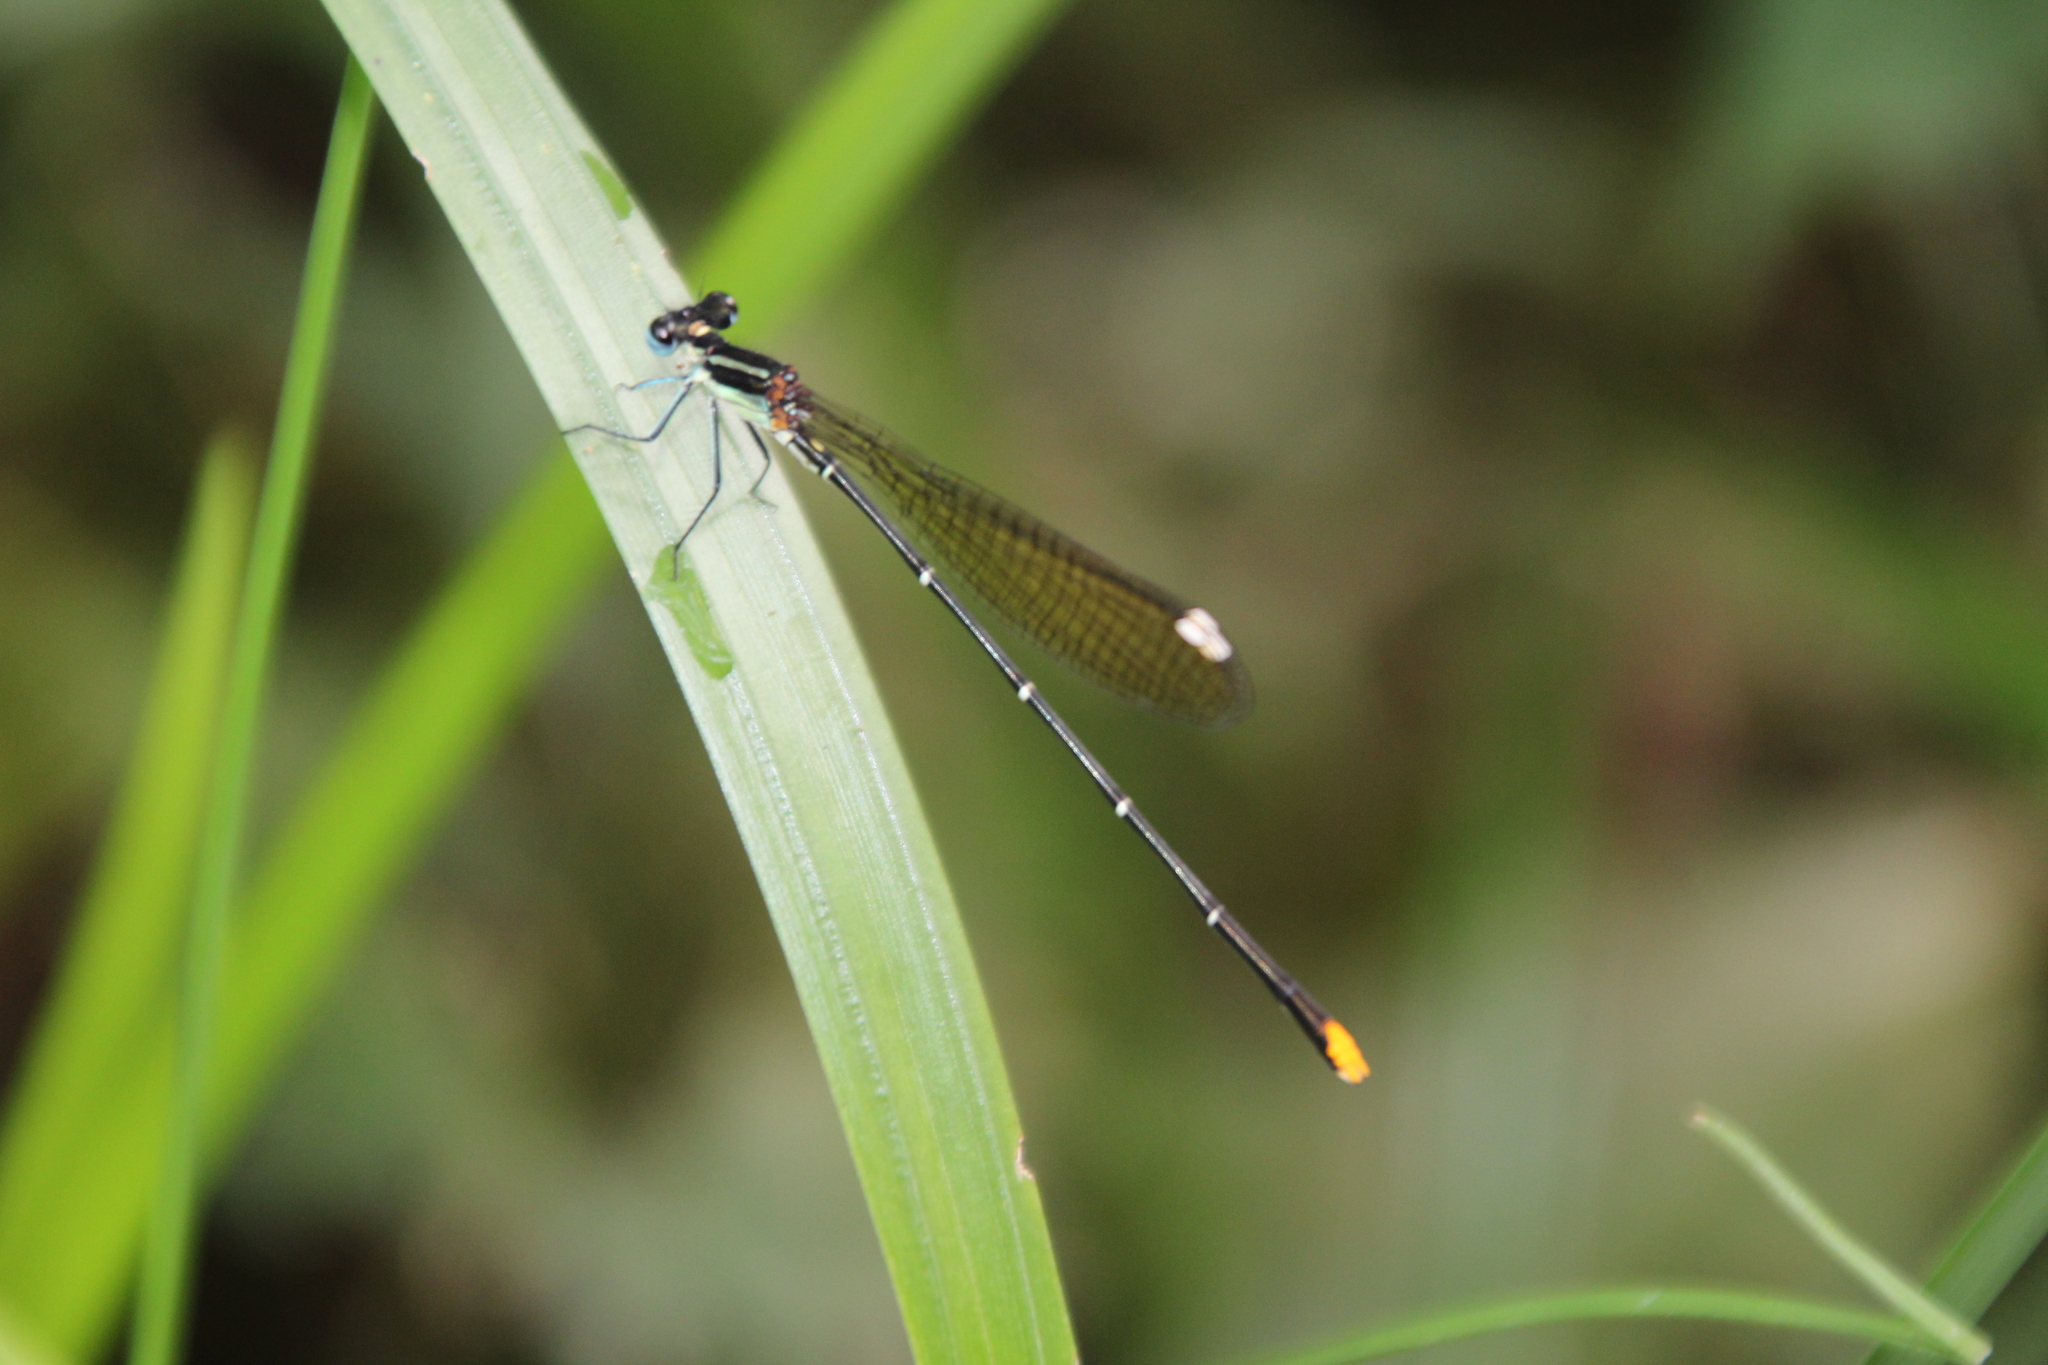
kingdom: Animalia
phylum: Arthropoda
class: Insecta
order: Odonata
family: Platycnemididae
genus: Allocnemis
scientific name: Allocnemis leucosticta
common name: Goldtail
